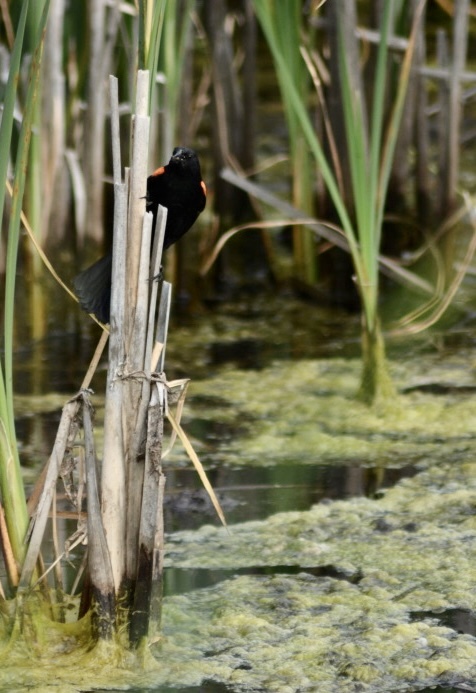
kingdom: Animalia
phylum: Chordata
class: Aves
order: Passeriformes
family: Icteridae
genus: Agelaius
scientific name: Agelaius phoeniceus
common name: Red-winged blackbird
